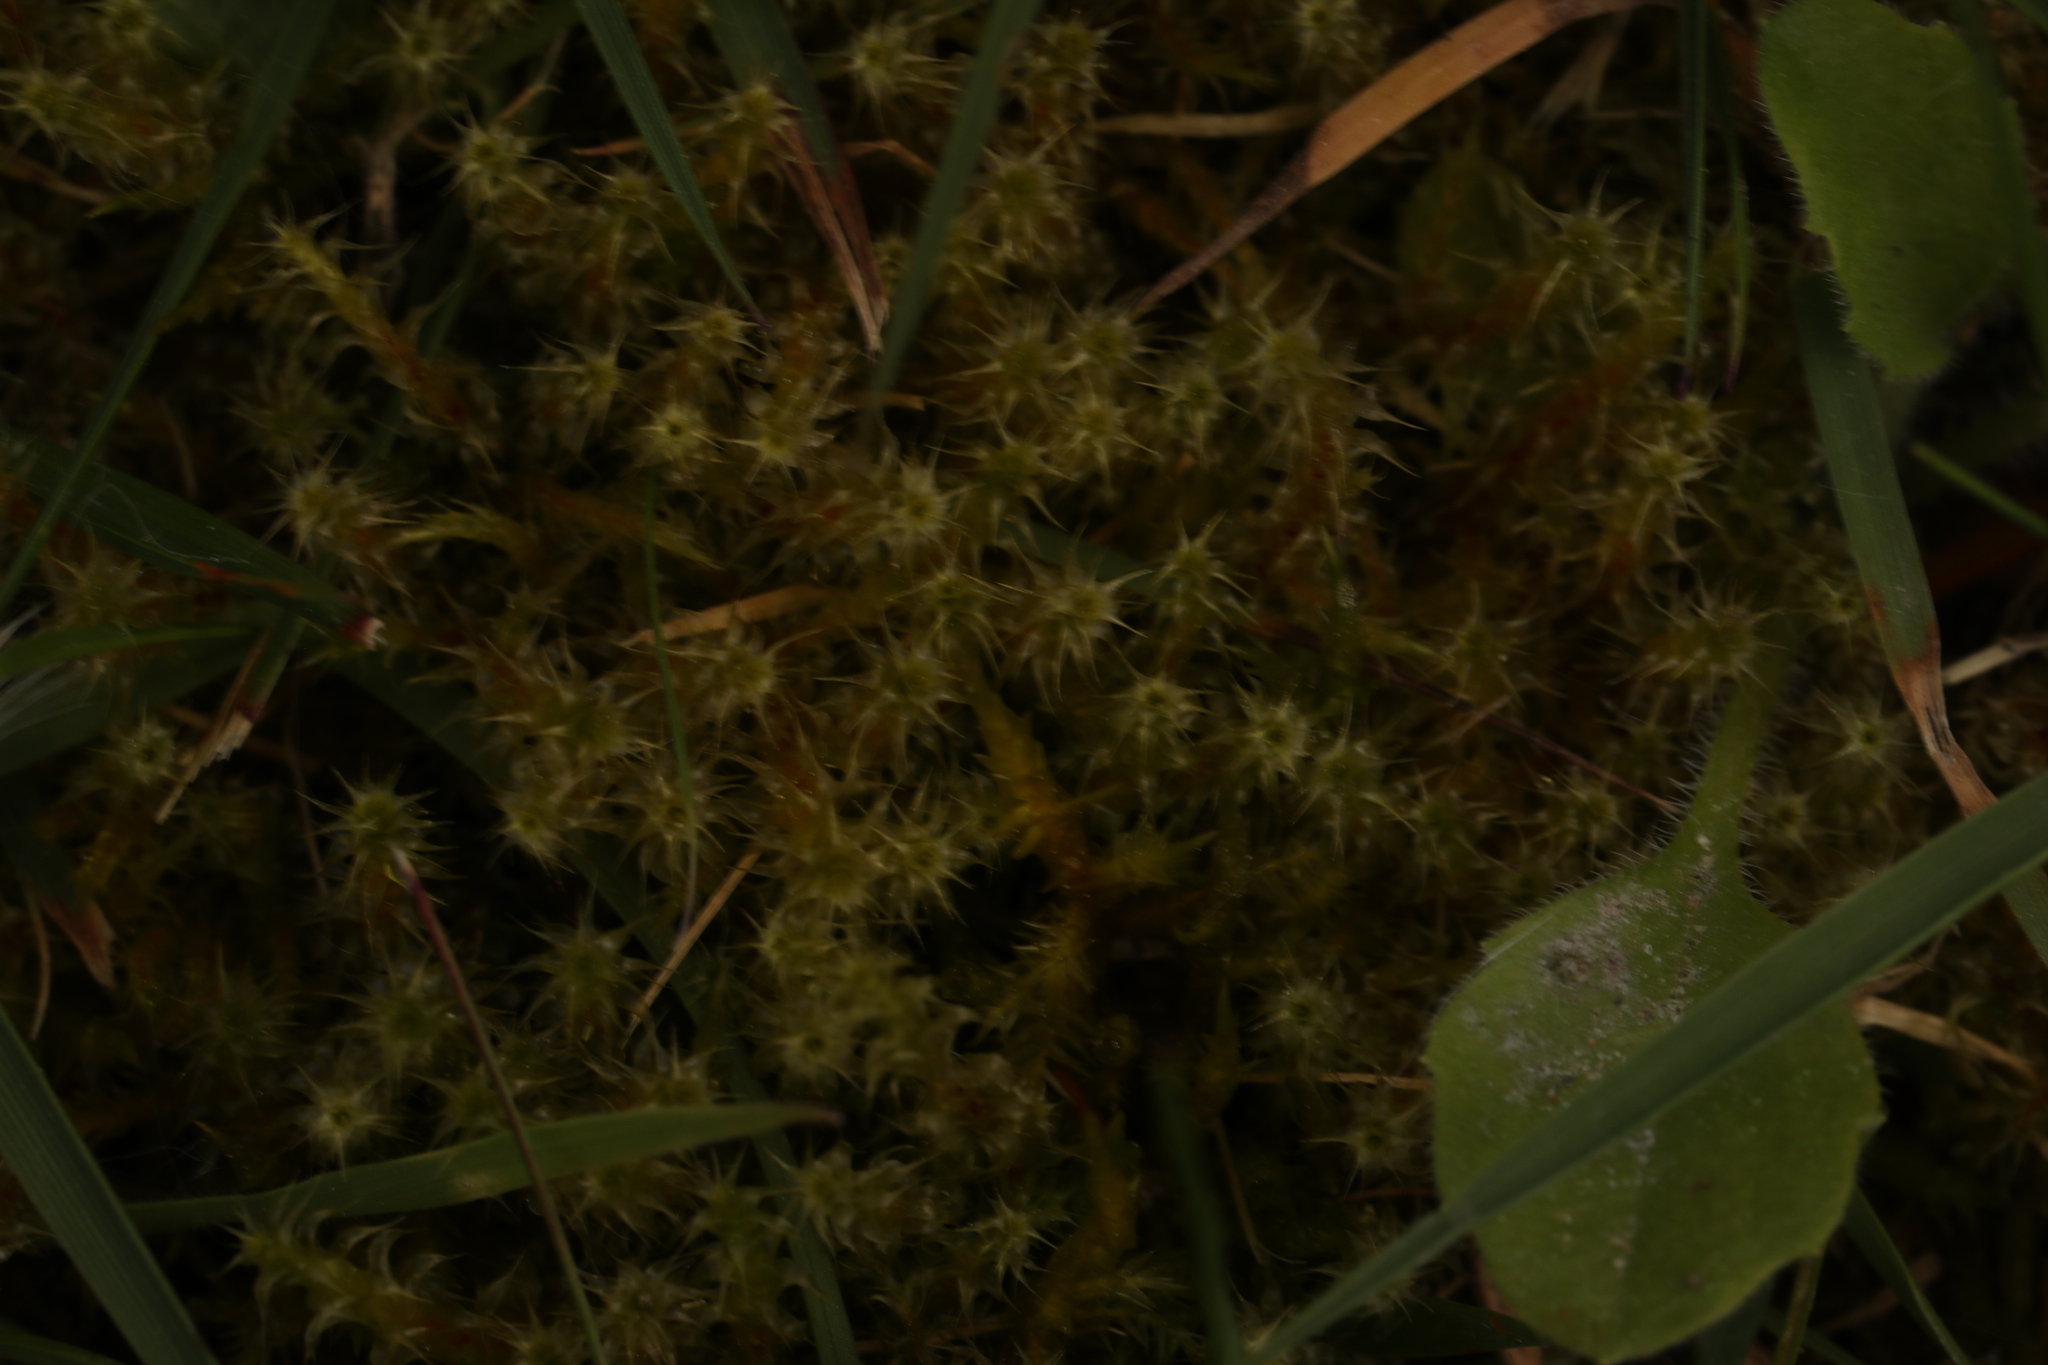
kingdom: Plantae
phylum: Bryophyta
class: Bryopsida
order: Hypnales
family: Hylocomiaceae
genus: Rhytidiadelphus
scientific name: Rhytidiadelphus squarrosus
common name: Springy turf-moss
